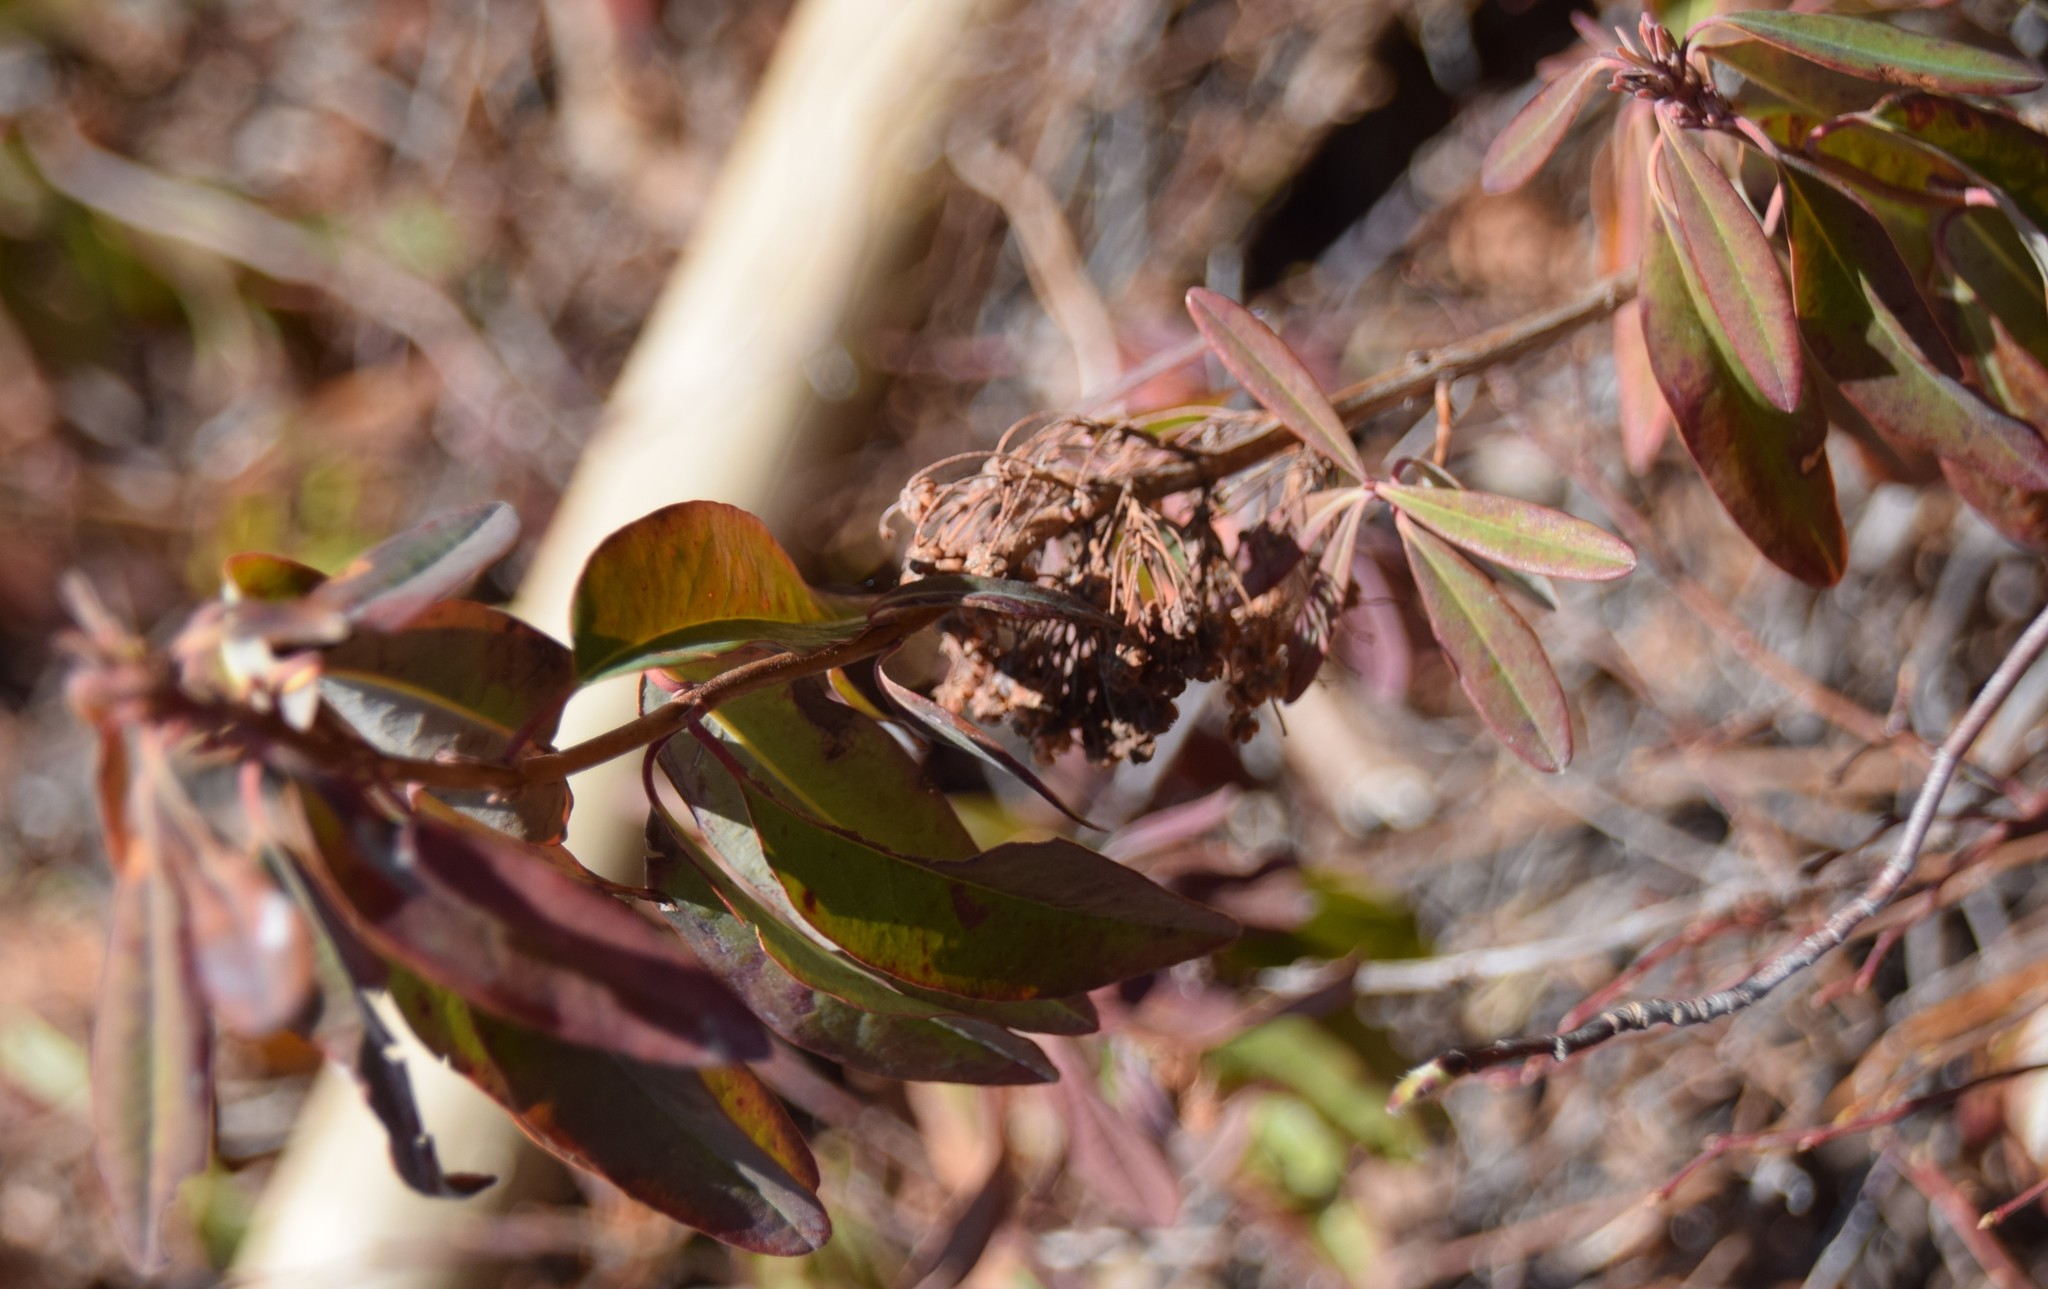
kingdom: Plantae
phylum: Tracheophyta
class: Magnoliopsida
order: Ericales
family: Ericaceae
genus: Kalmia
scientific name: Kalmia angustifolia
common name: Sheep-laurel
